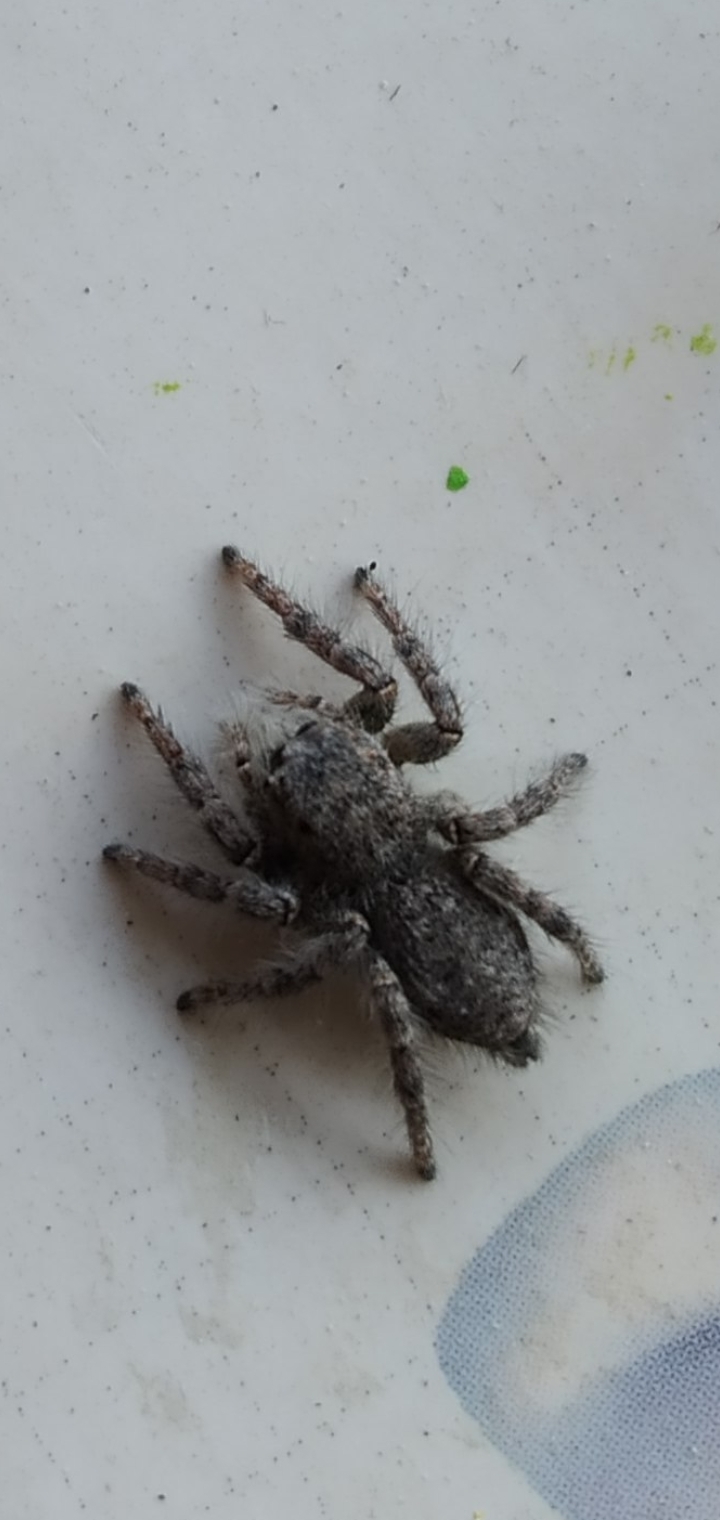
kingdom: Animalia
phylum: Arthropoda
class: Arachnida
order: Araneae
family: Salticidae
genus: Philaeus
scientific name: Philaeus chrysops
